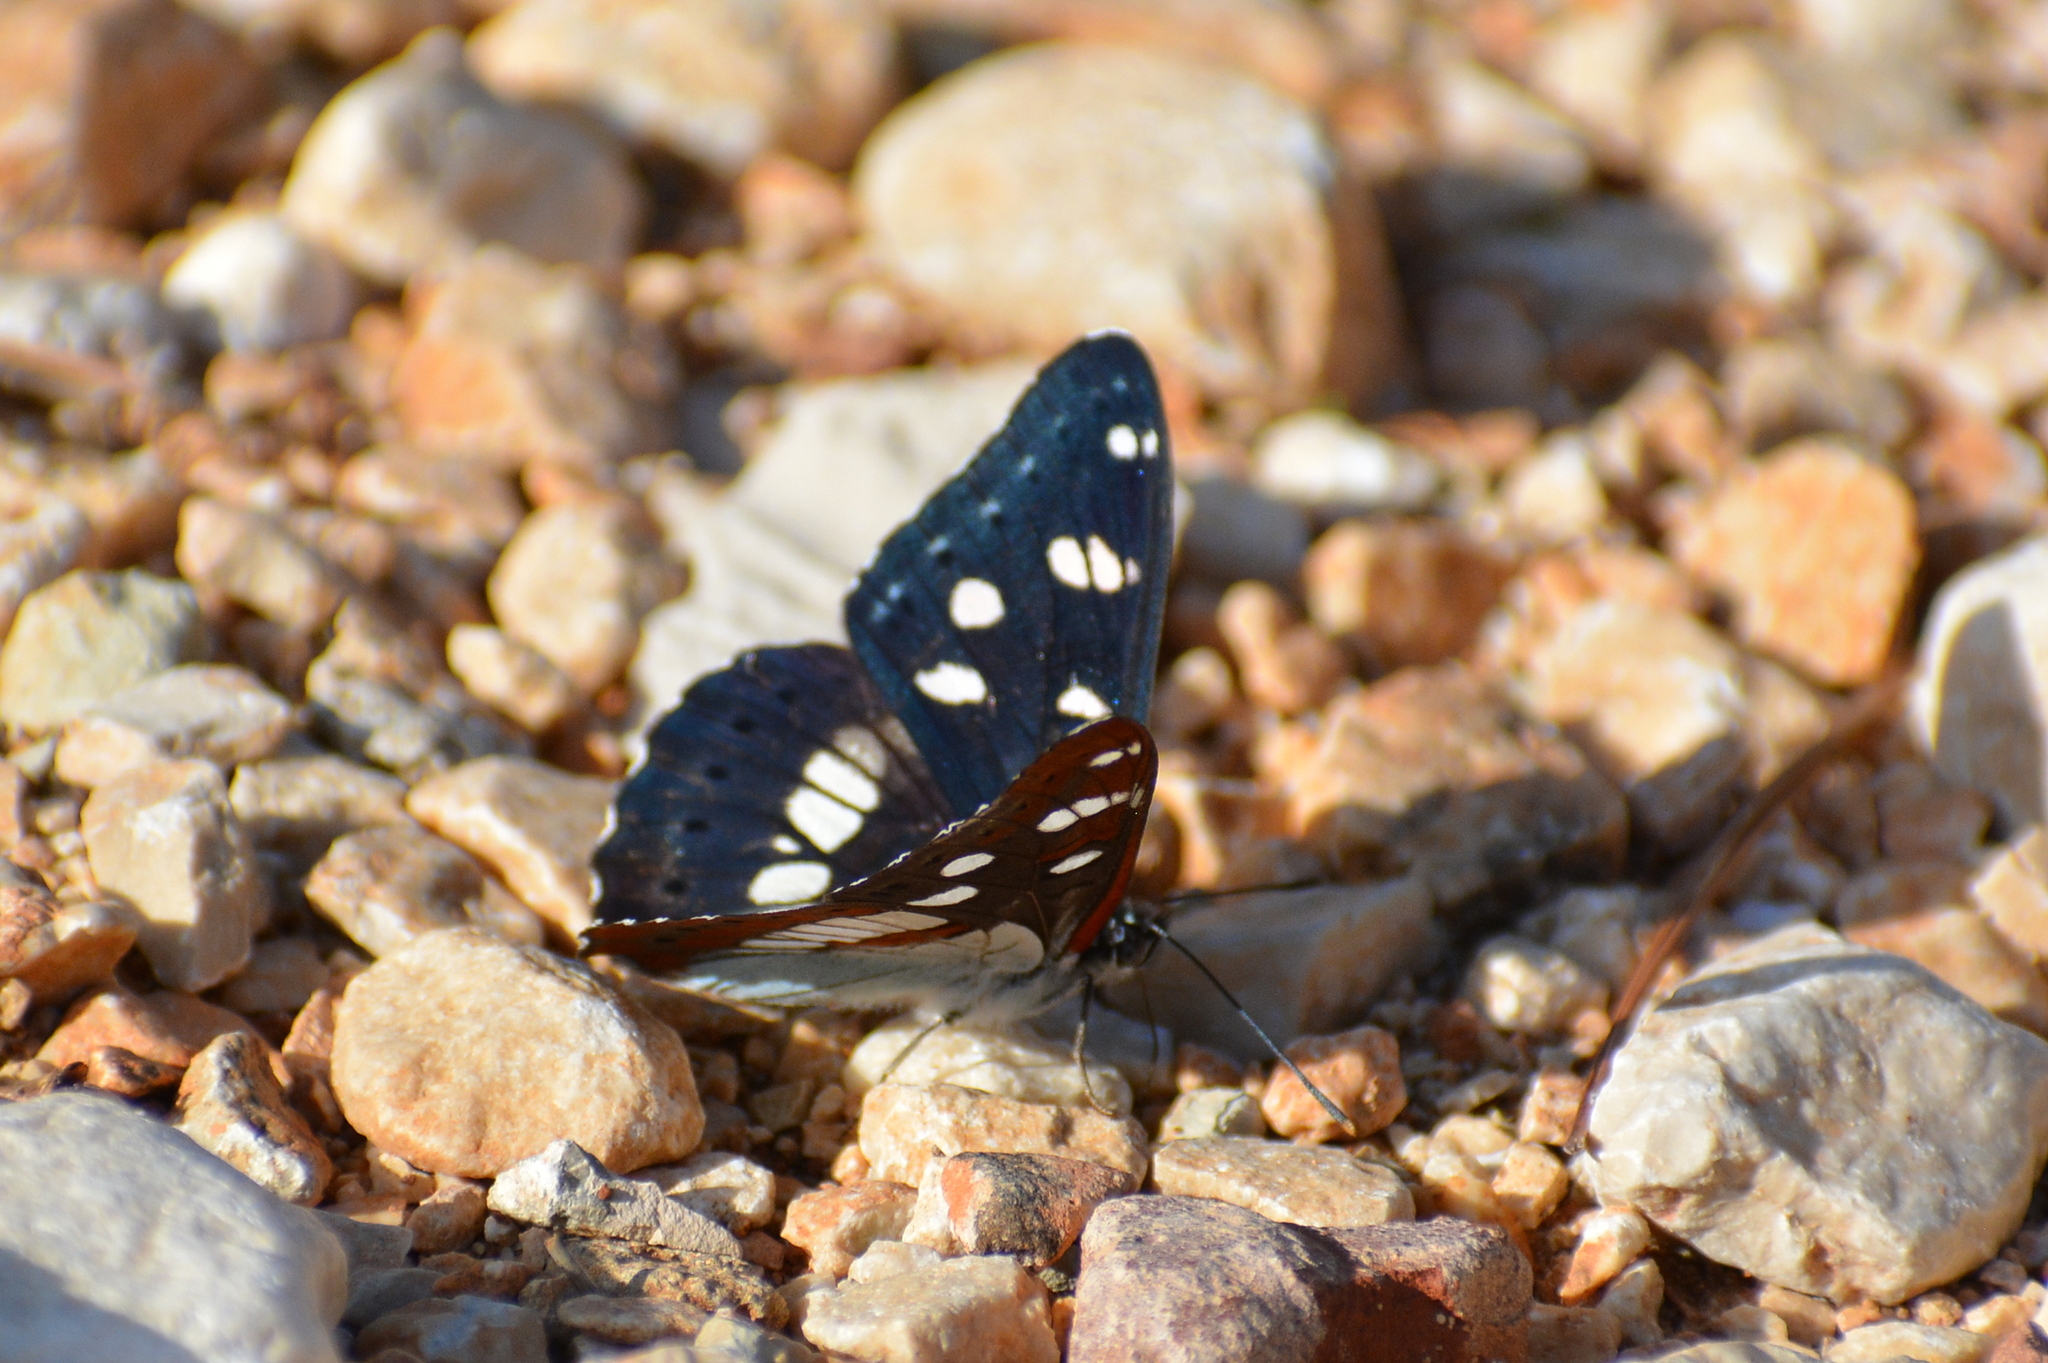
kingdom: Animalia
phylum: Arthropoda
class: Insecta
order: Lepidoptera
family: Nymphalidae
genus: Limenitis
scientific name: Limenitis reducta
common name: Southern white admiral
